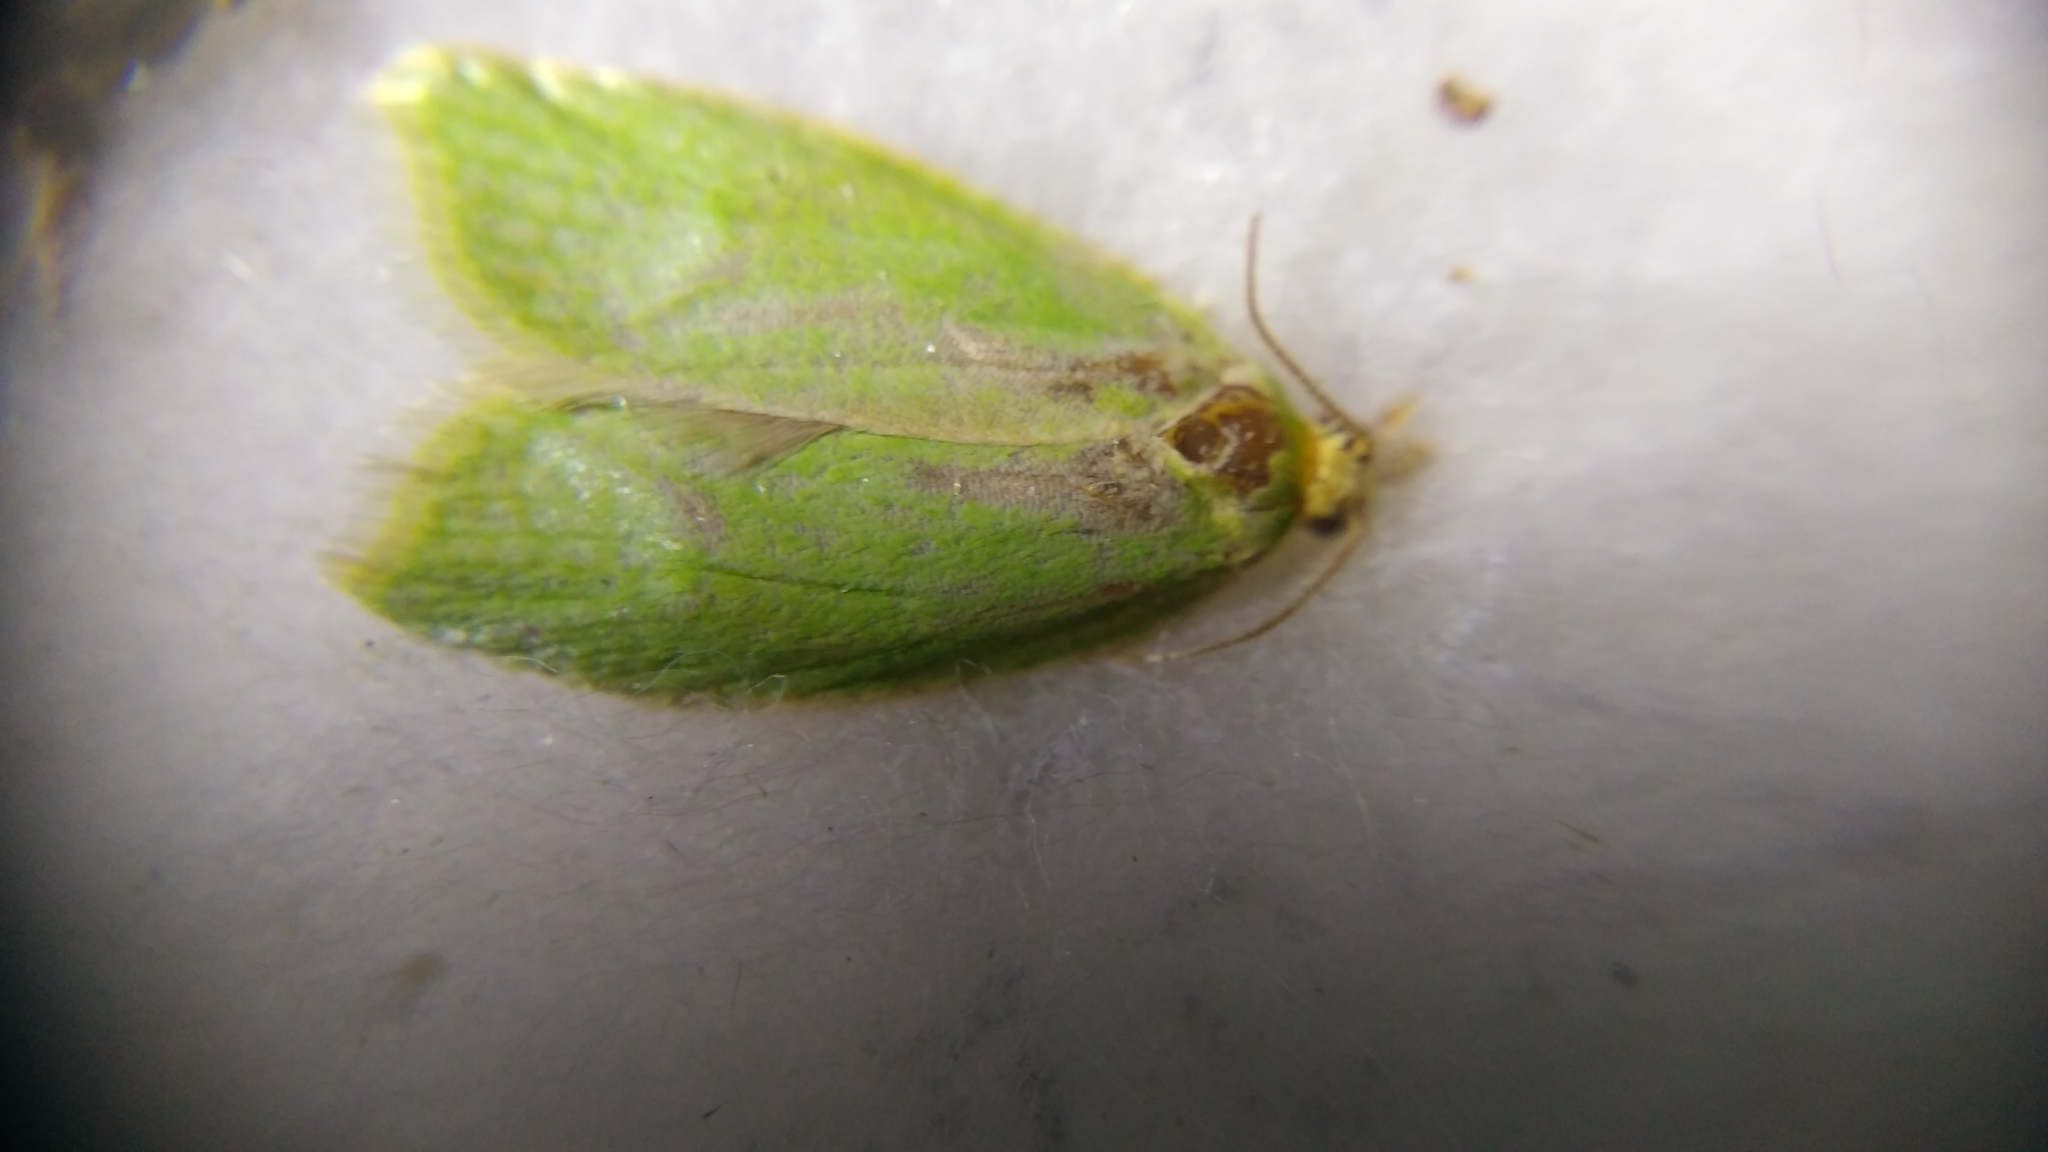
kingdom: Animalia
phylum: Arthropoda
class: Insecta
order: Lepidoptera
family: Tortricidae
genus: Tortrix
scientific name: Tortrix viridana
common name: Green oak tortrix
